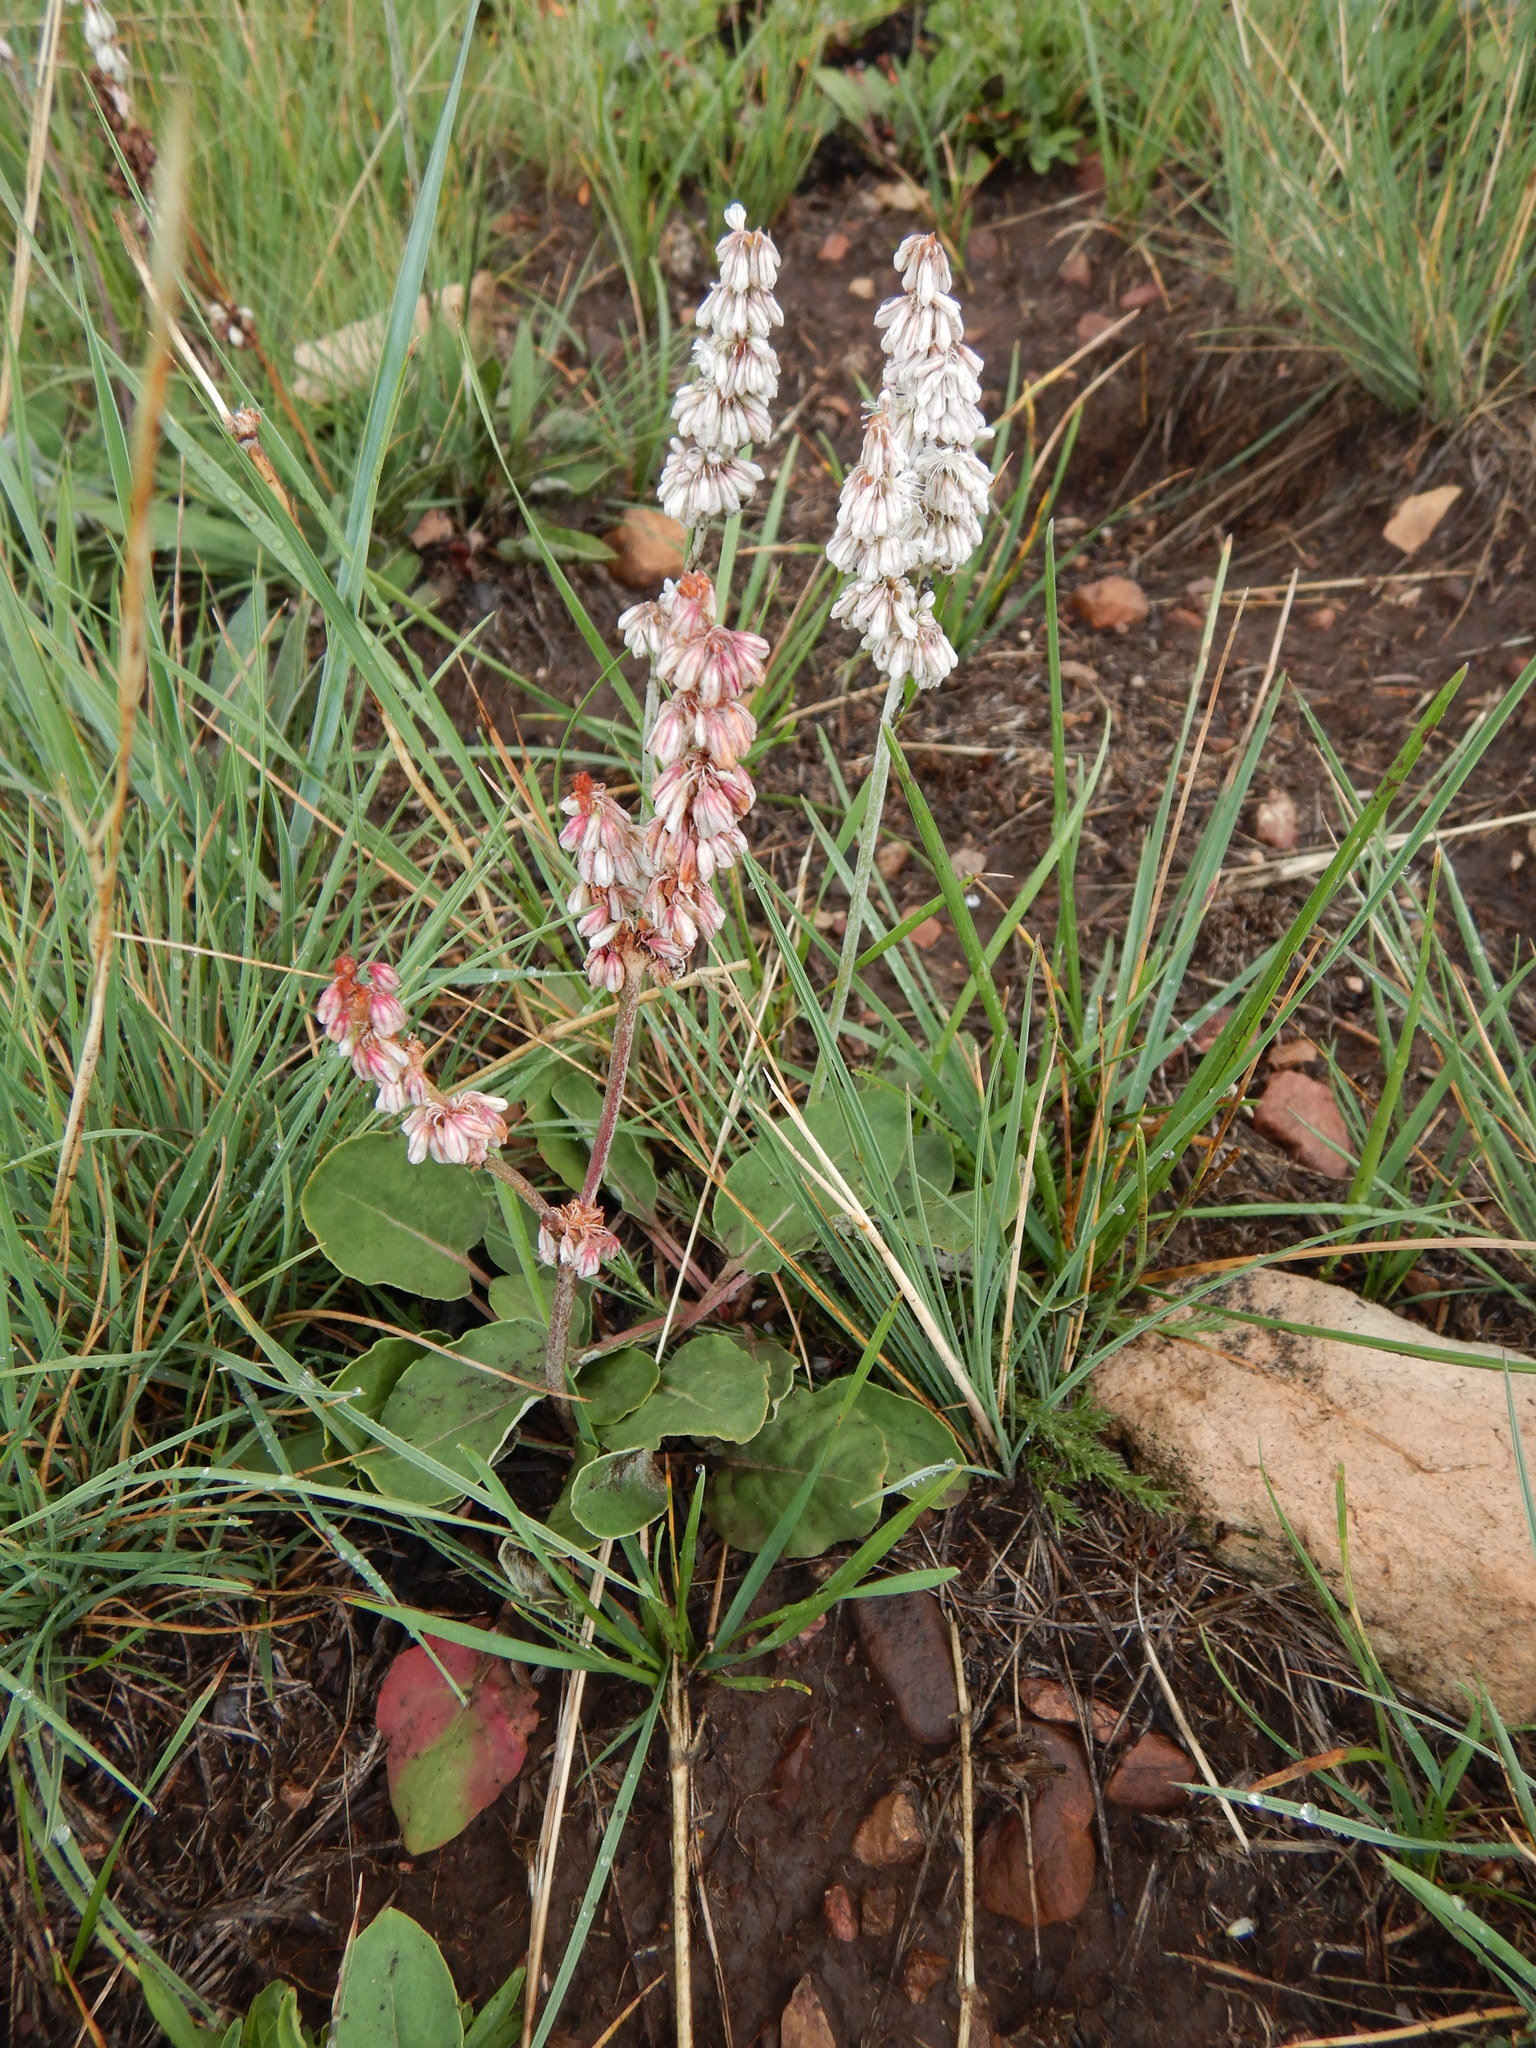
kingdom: Plantae
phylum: Tracheophyta
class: Magnoliopsida
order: Caryophyllales
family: Polygonaceae
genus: Eriogonum
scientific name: Eriogonum racemosum
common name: Redroot wild buckwheat
